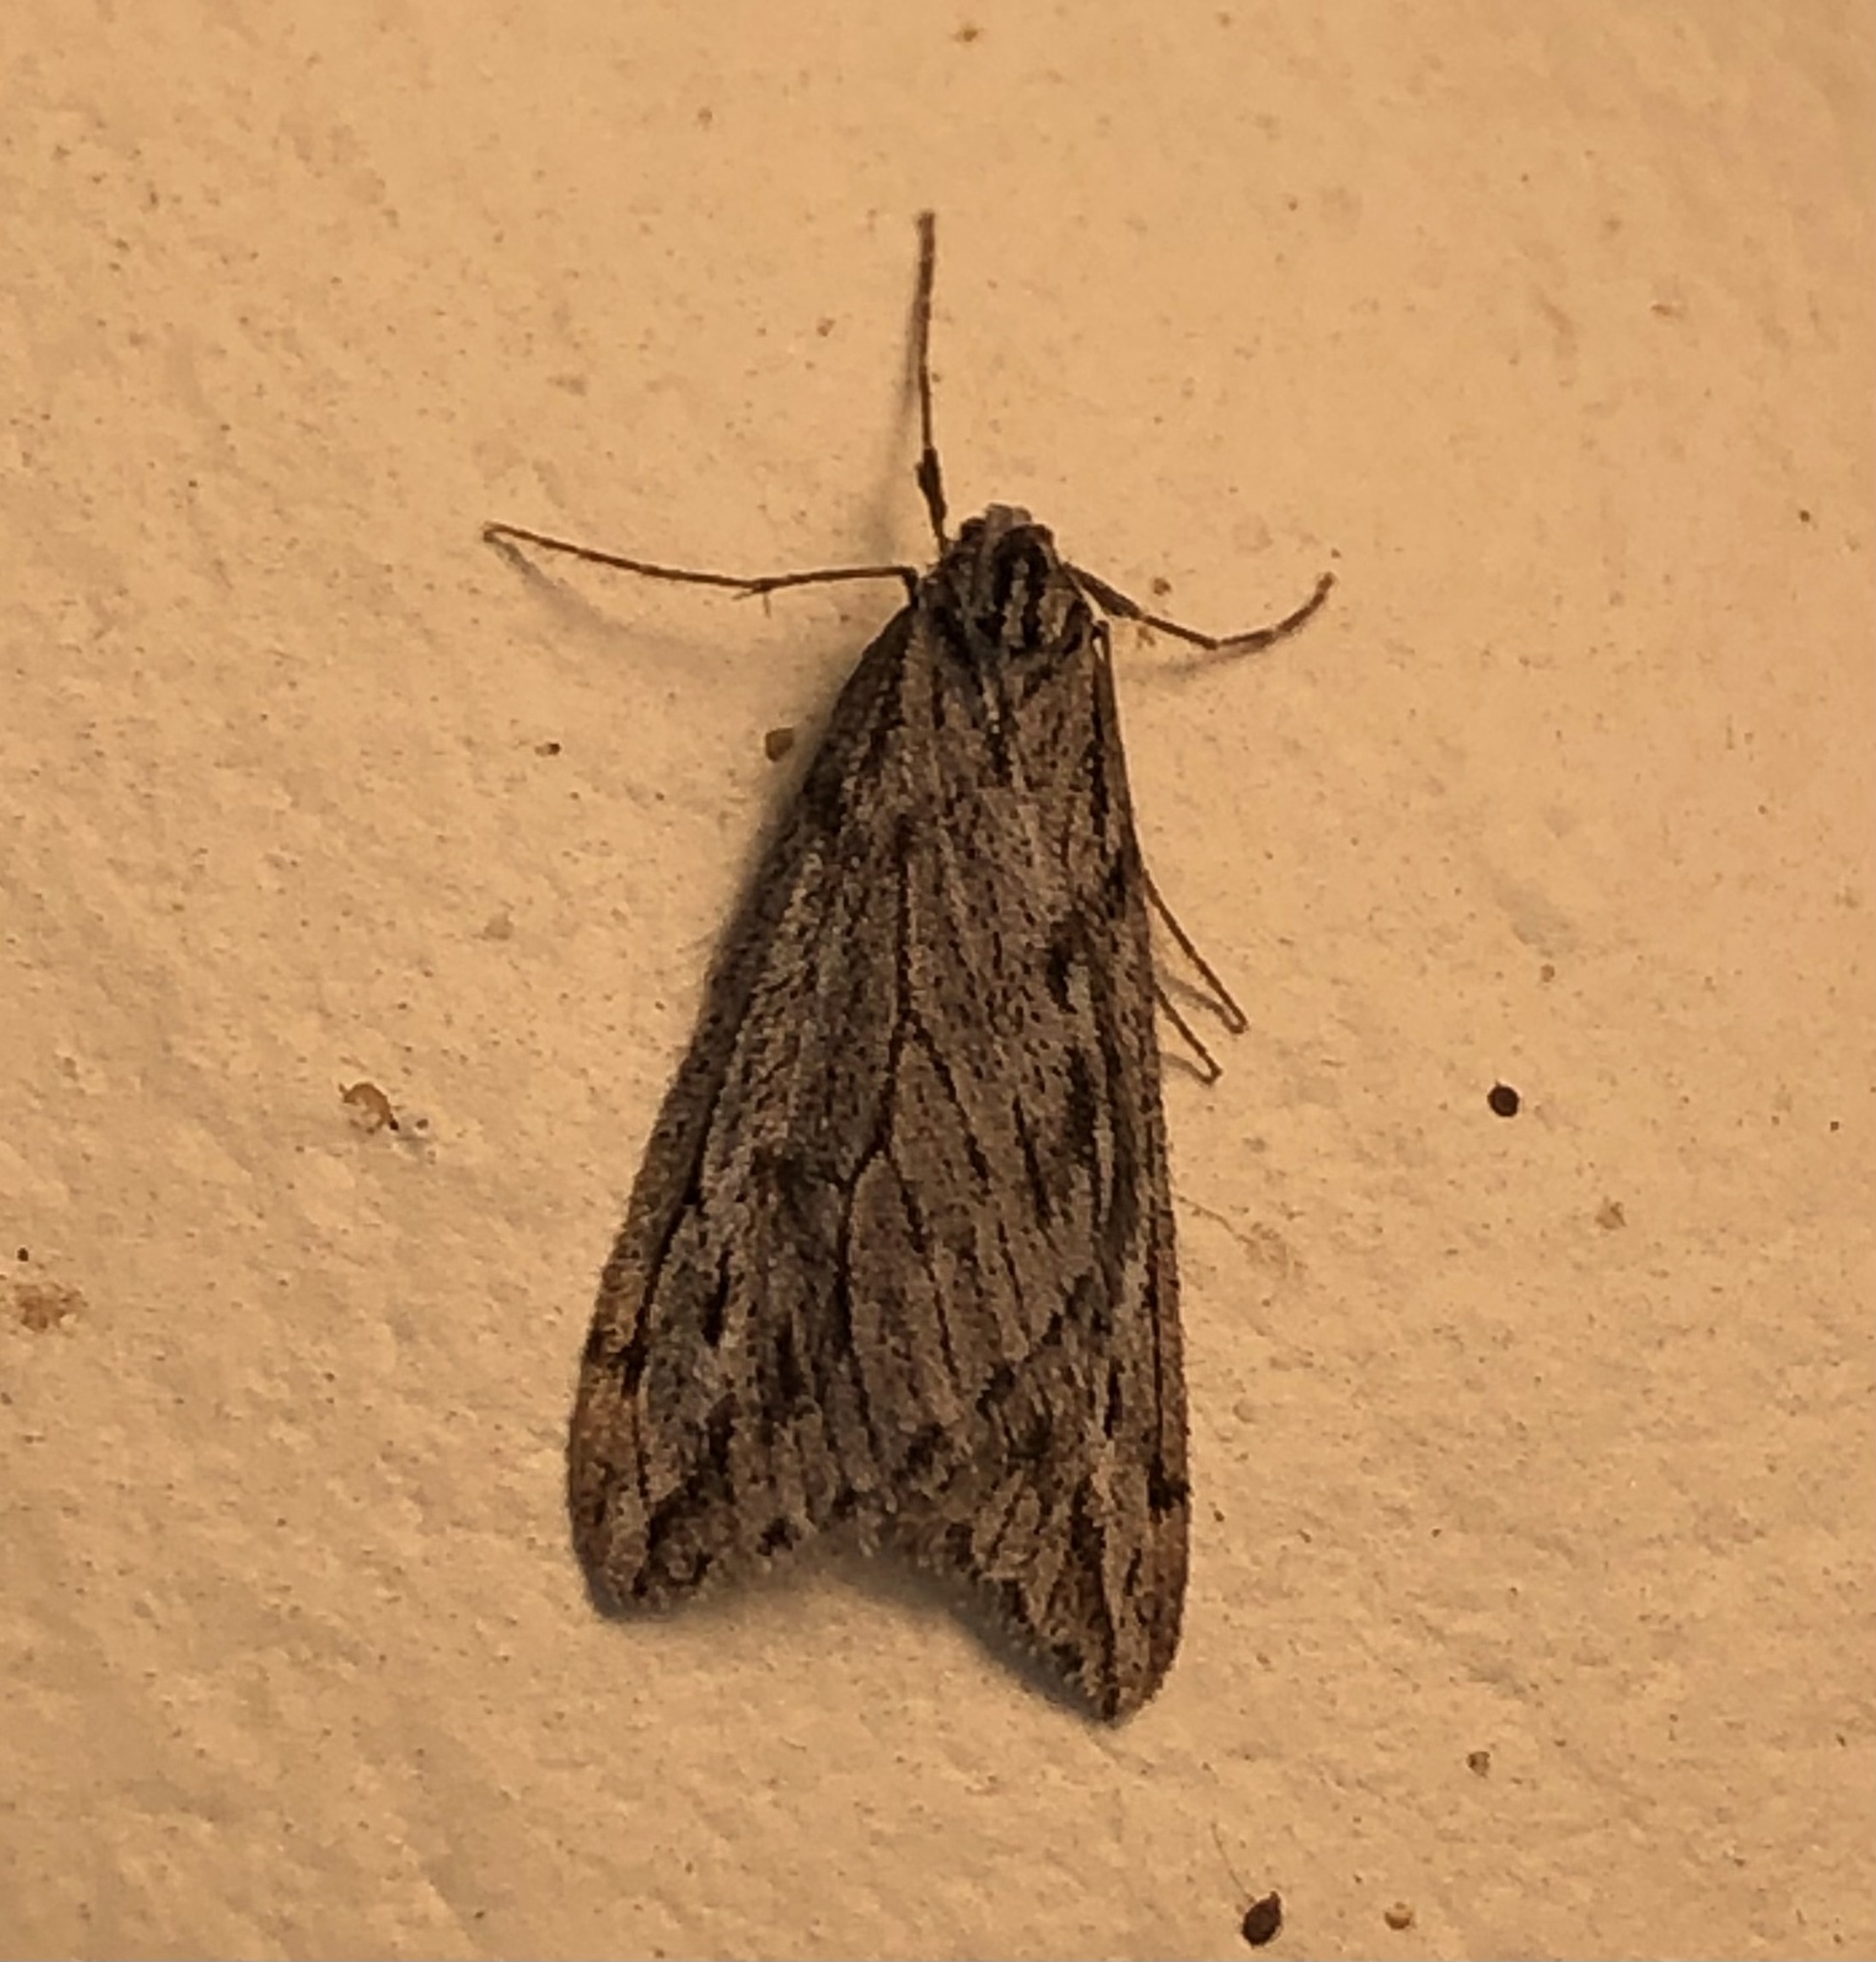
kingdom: Animalia
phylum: Arthropoda
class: Insecta
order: Lepidoptera
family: Geometridae
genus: Paleacrita
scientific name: Paleacrita longiciliata
